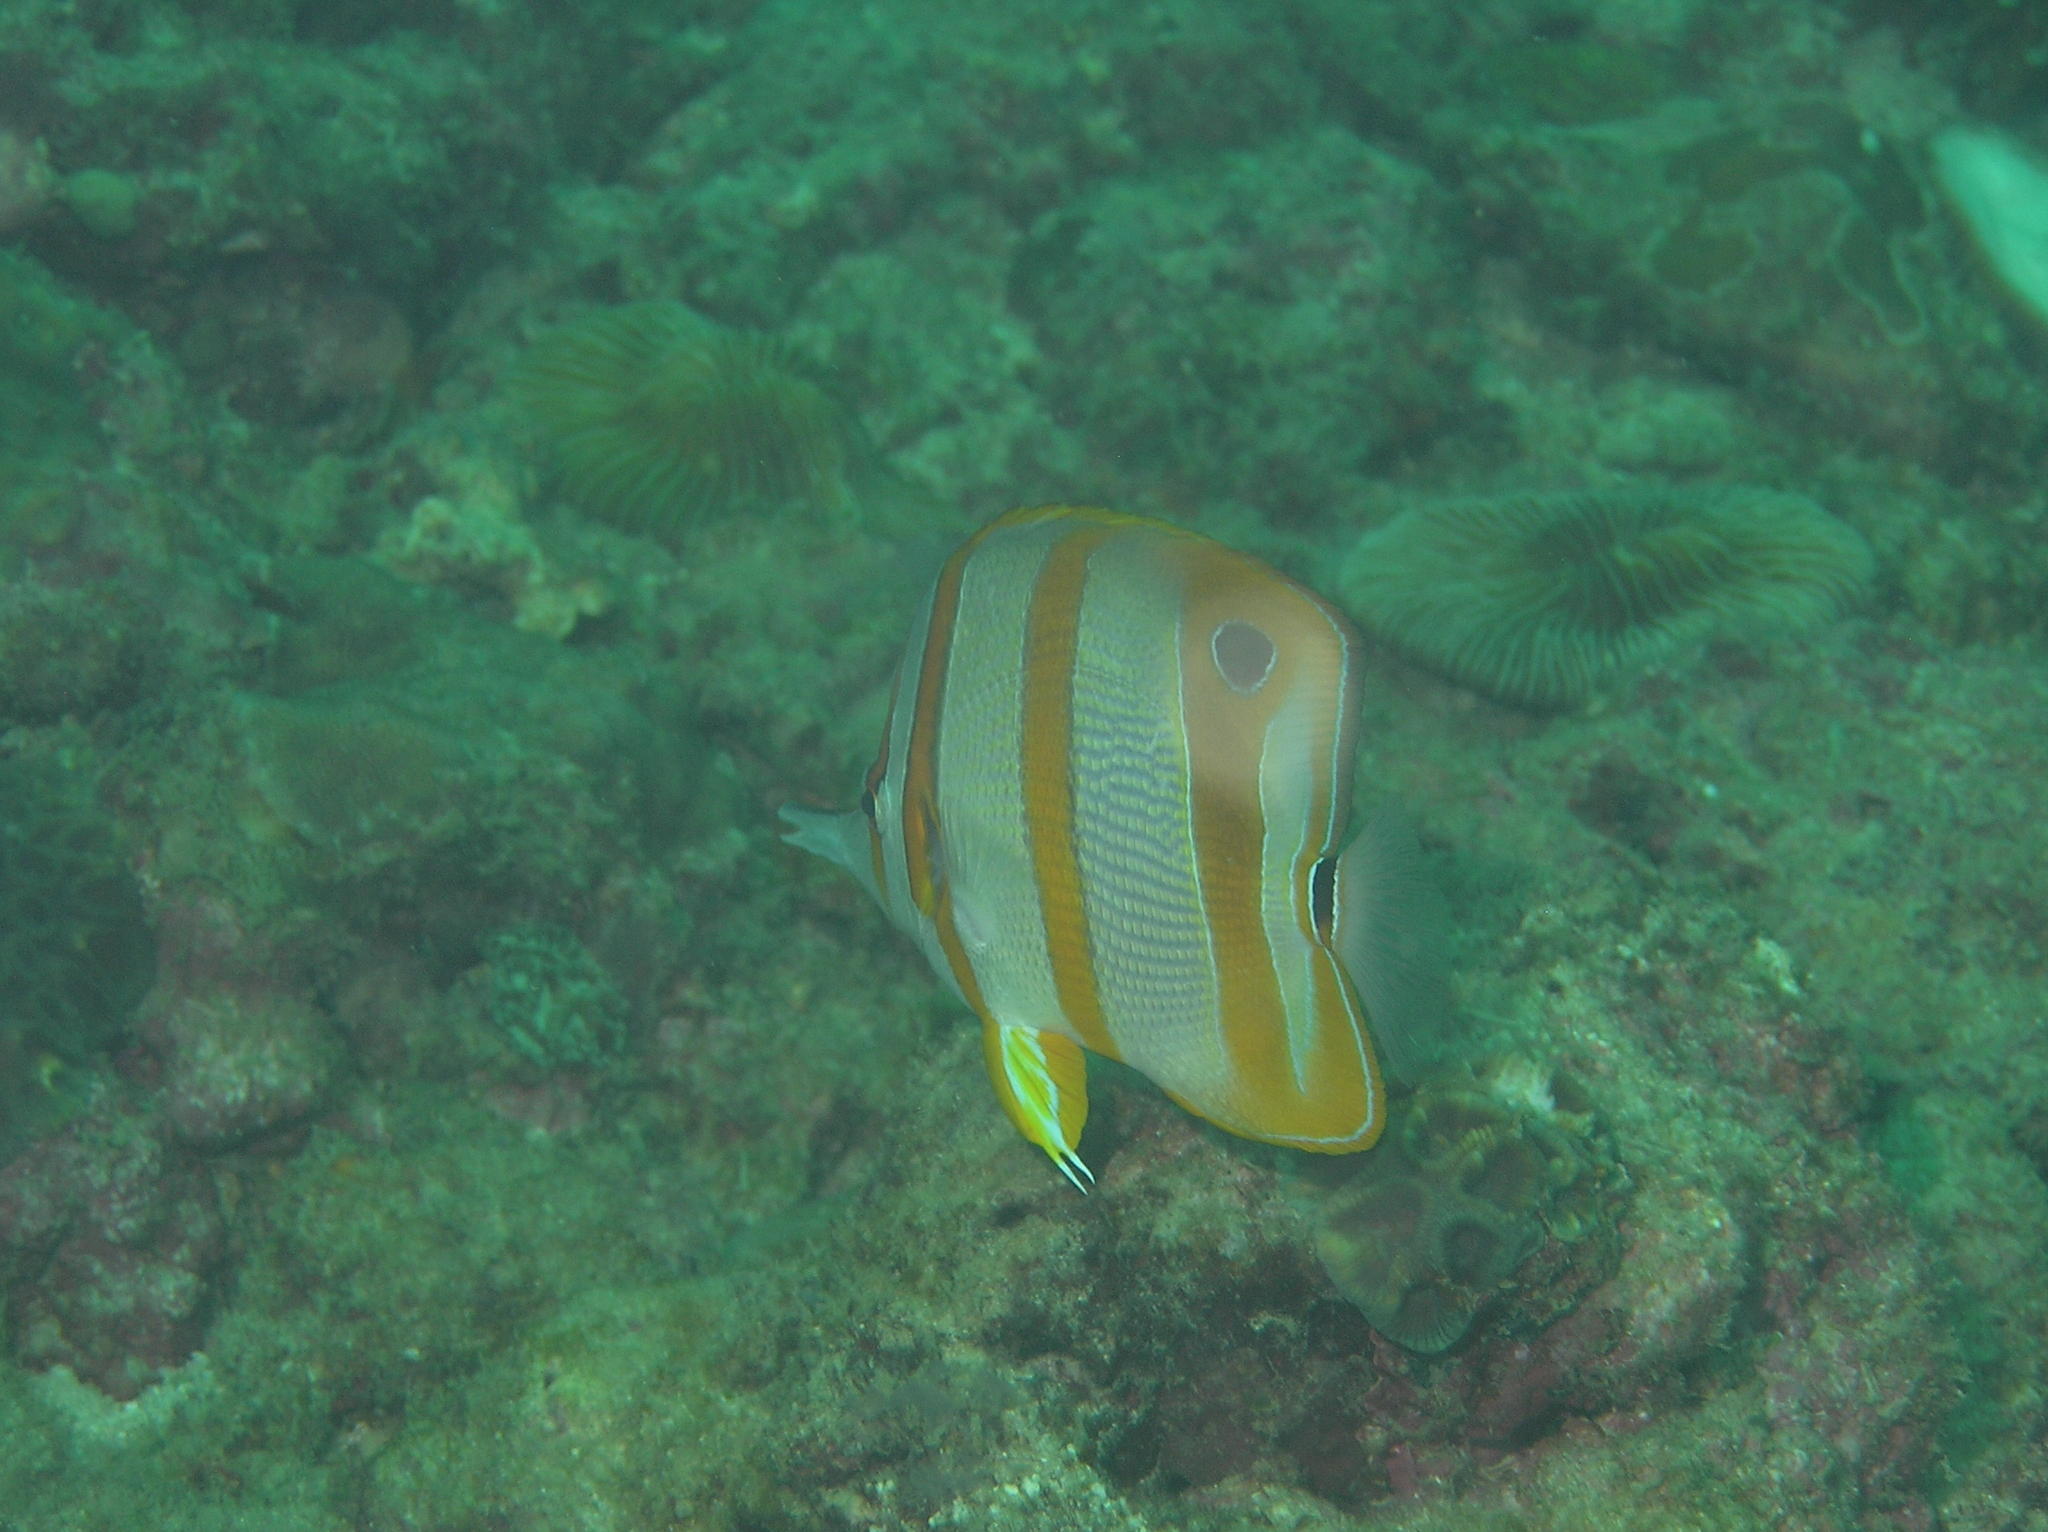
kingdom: Animalia
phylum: Chordata
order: Perciformes
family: Chaetodontidae
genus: Chelmon
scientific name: Chelmon rostratus
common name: Beaked butterflyfish
